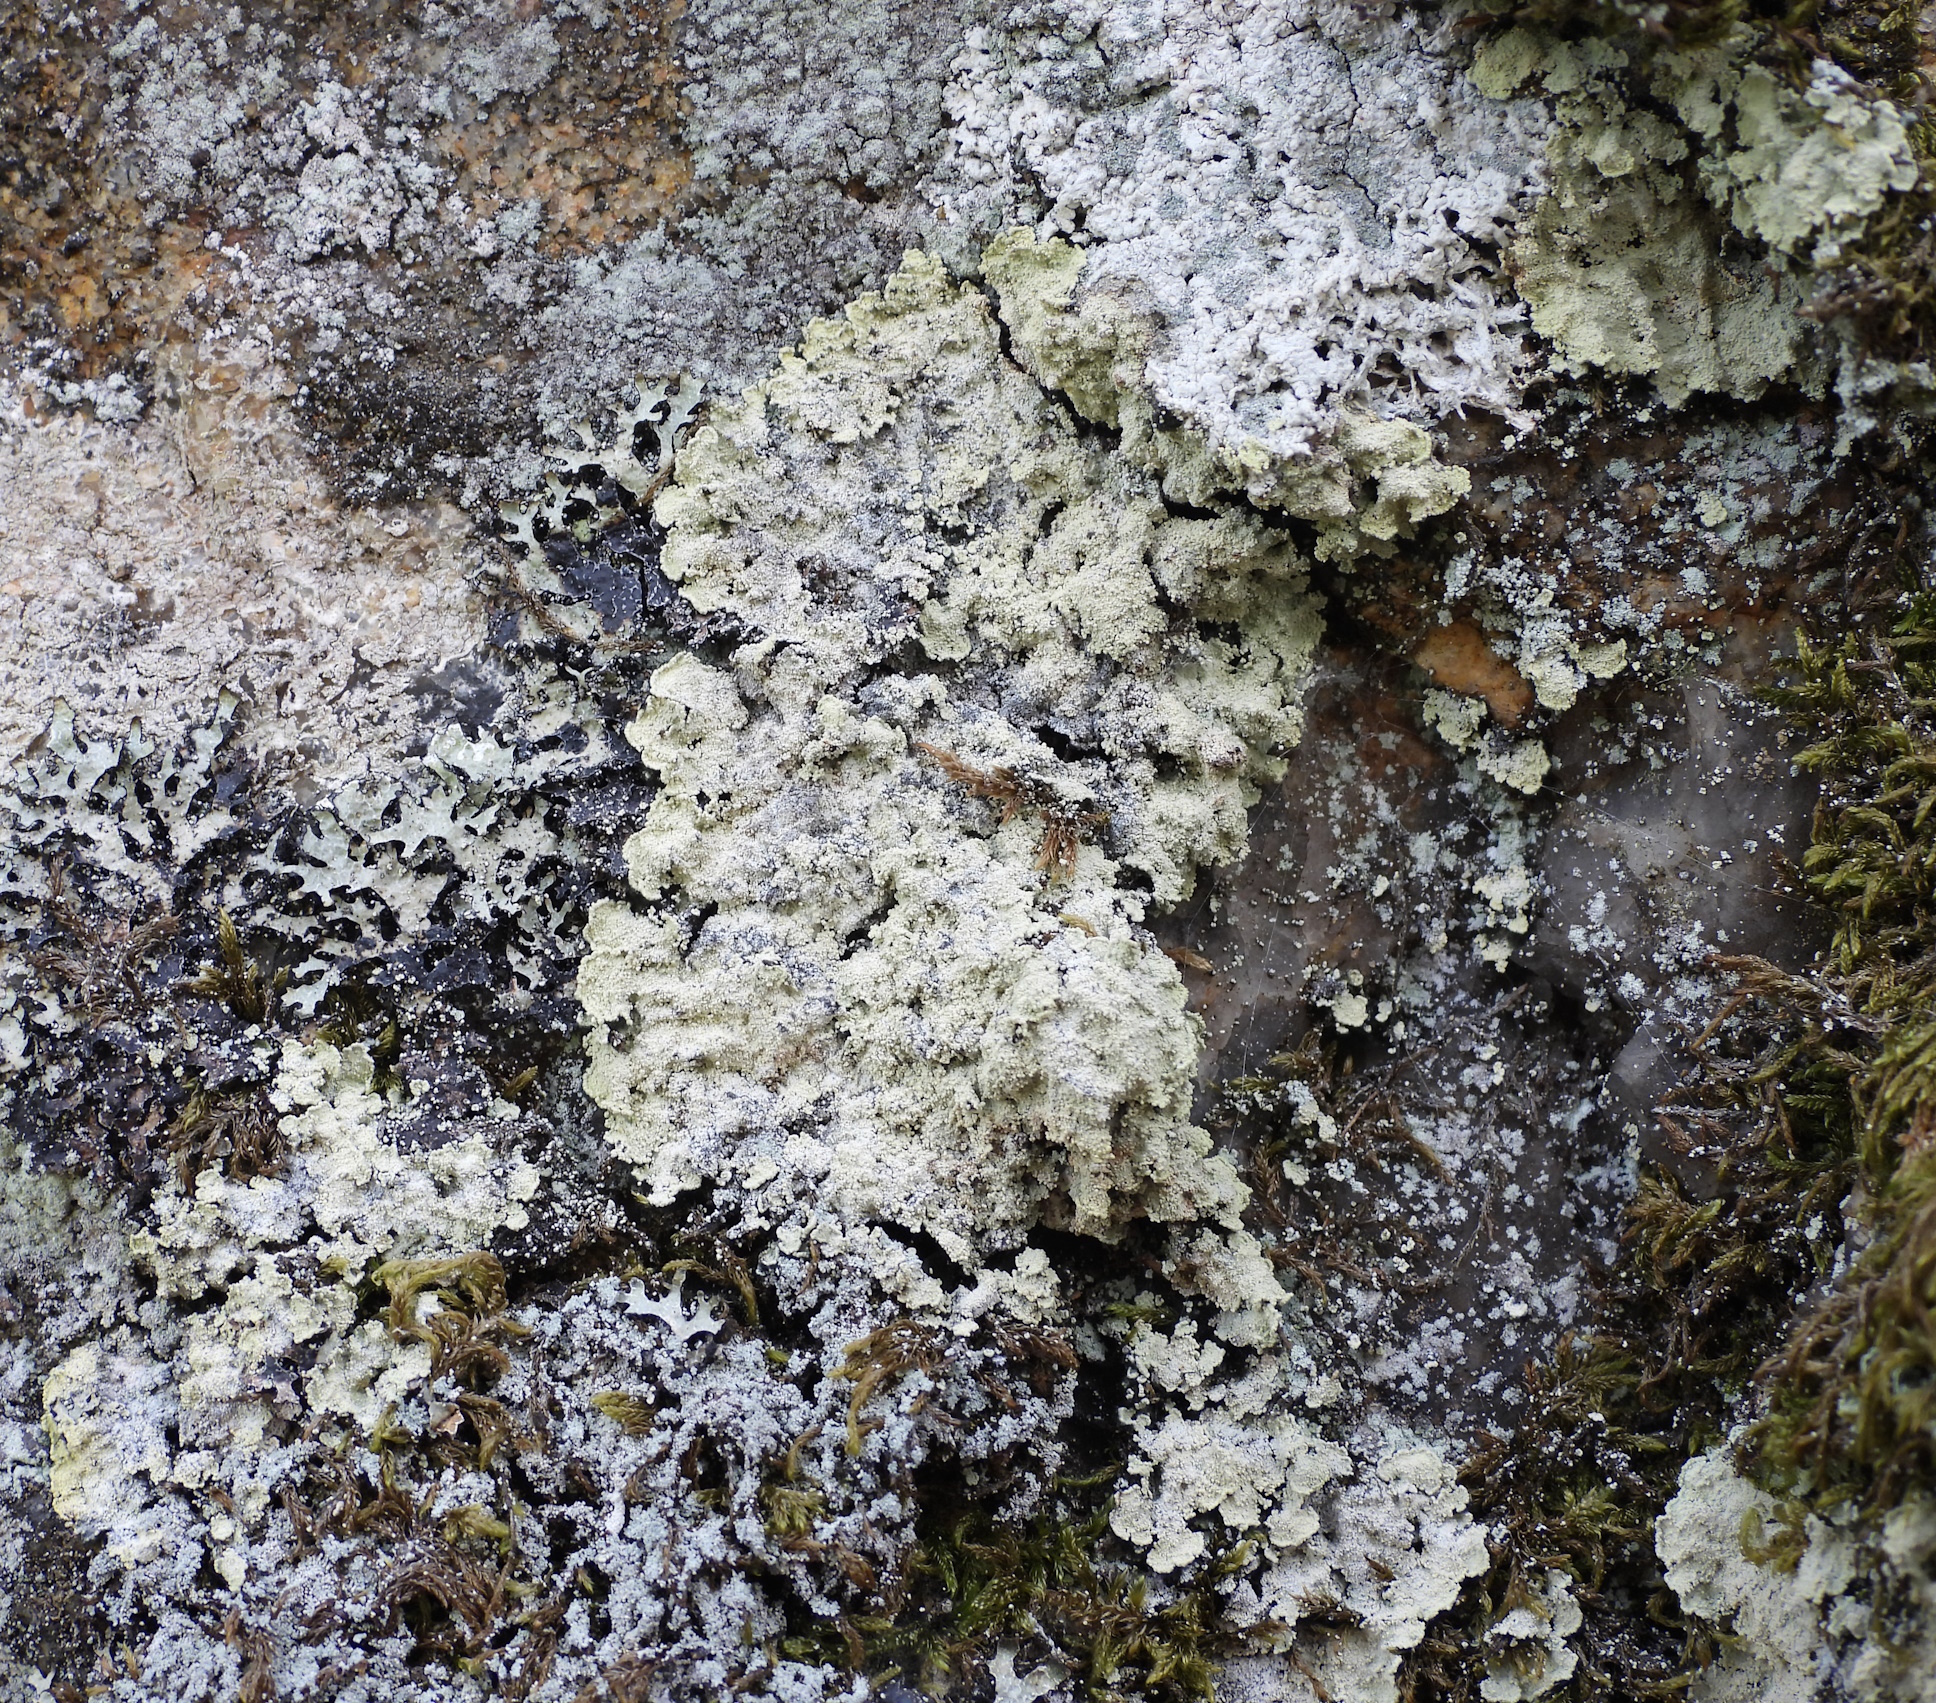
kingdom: Fungi
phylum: Ascomycota
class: Lecanoromycetes
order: Lecanorales
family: Stereocaulaceae
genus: Lepraria
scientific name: Lepraria membranacea
